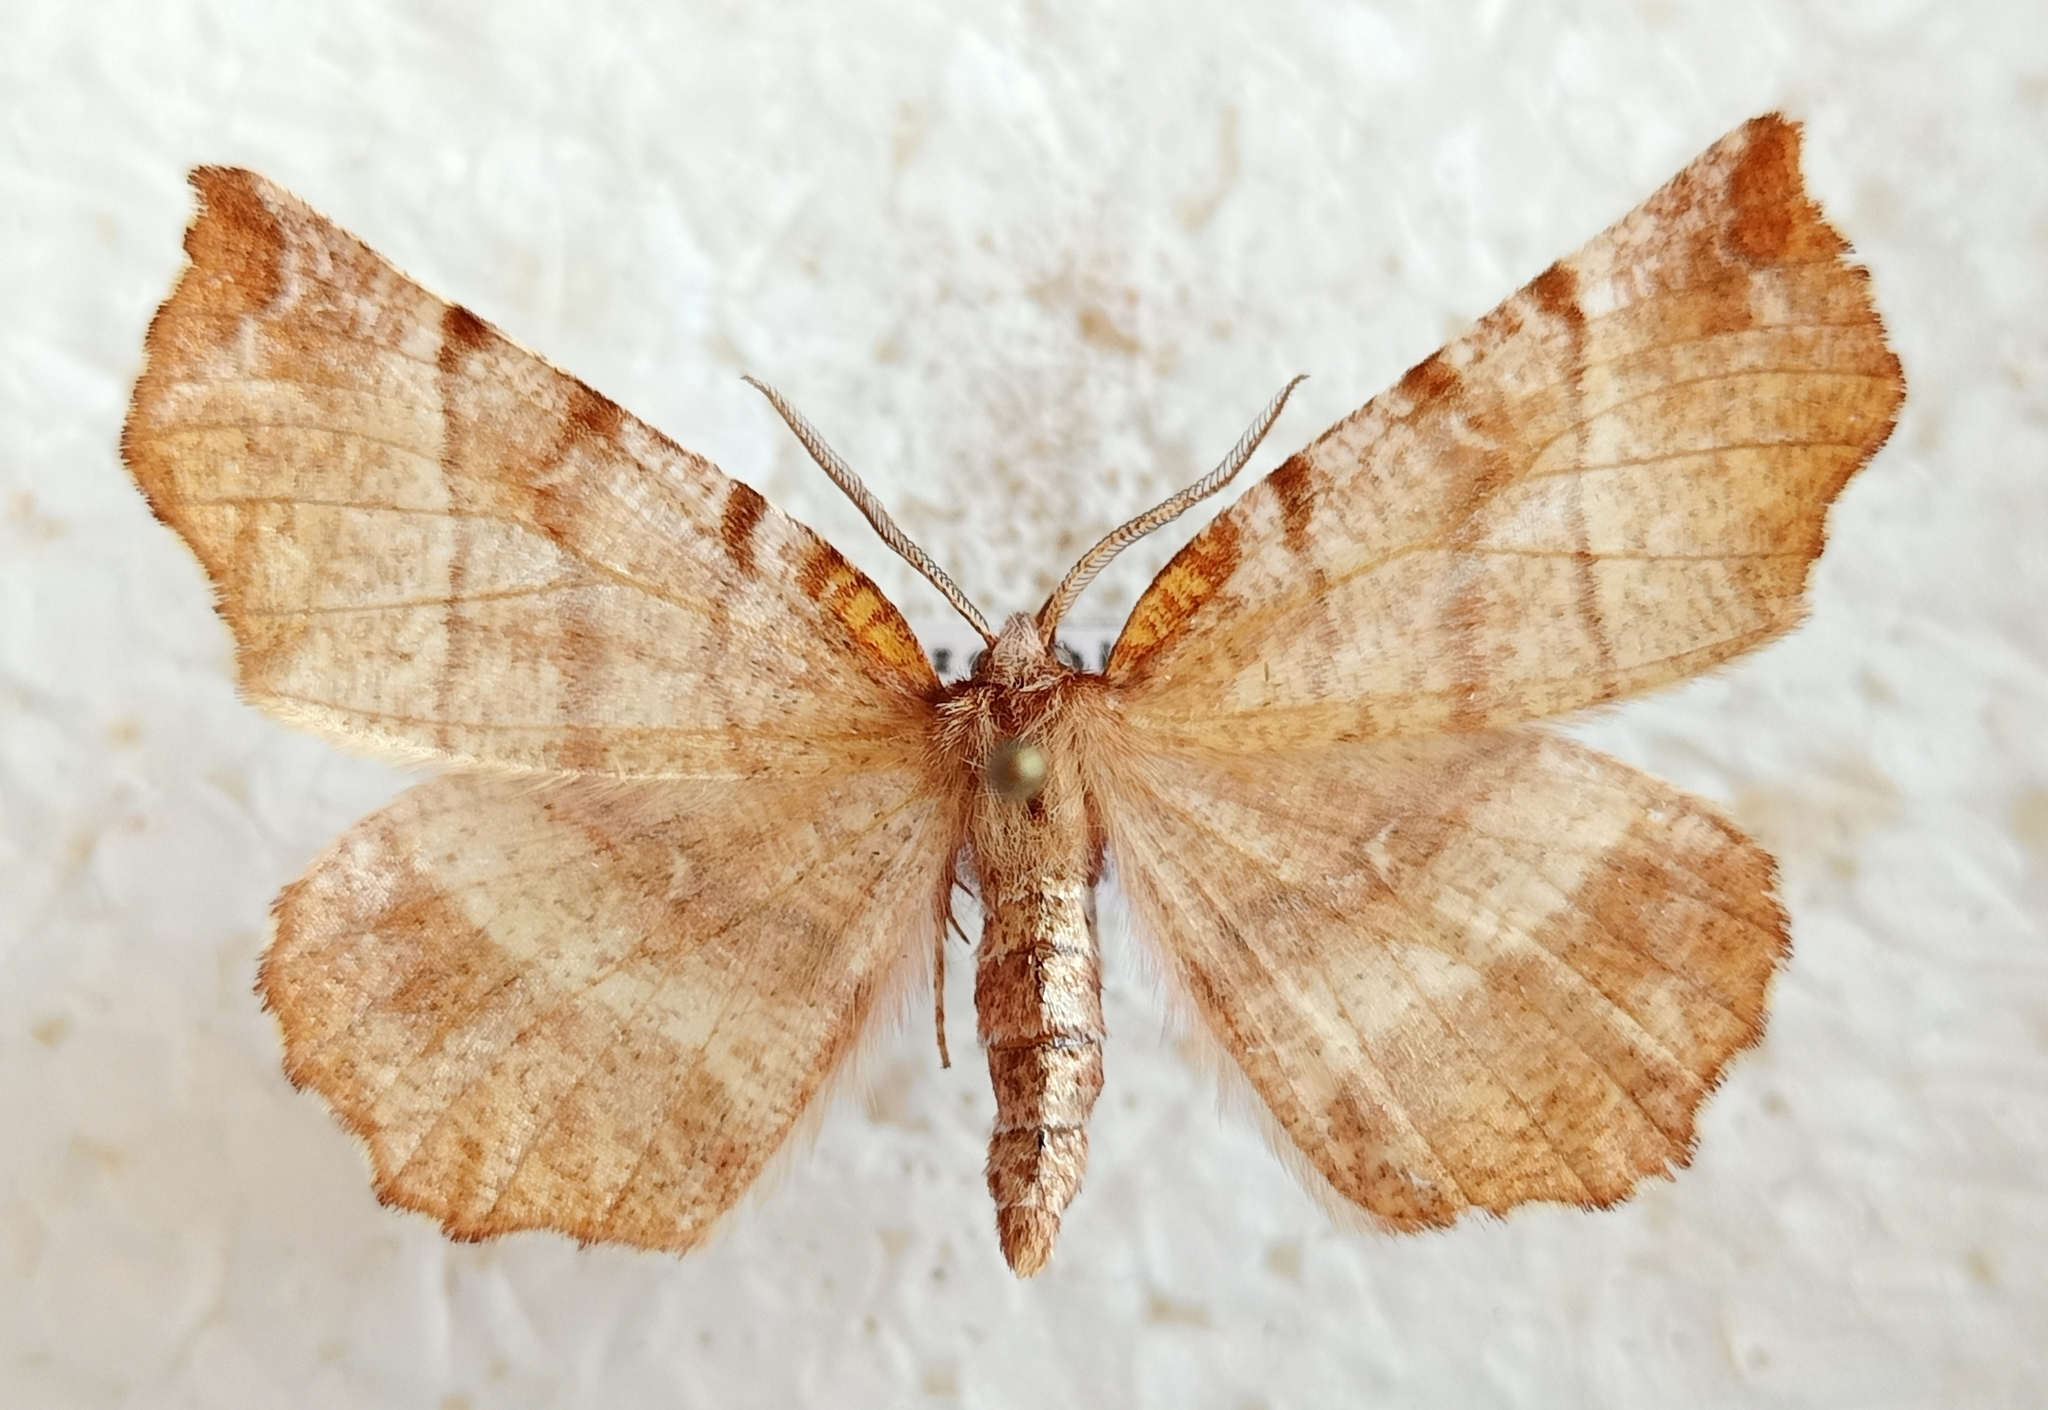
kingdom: Animalia
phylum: Arthropoda
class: Insecta
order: Lepidoptera
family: Geometridae
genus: Selenia
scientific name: Selenia dentaria
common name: Early thorn
